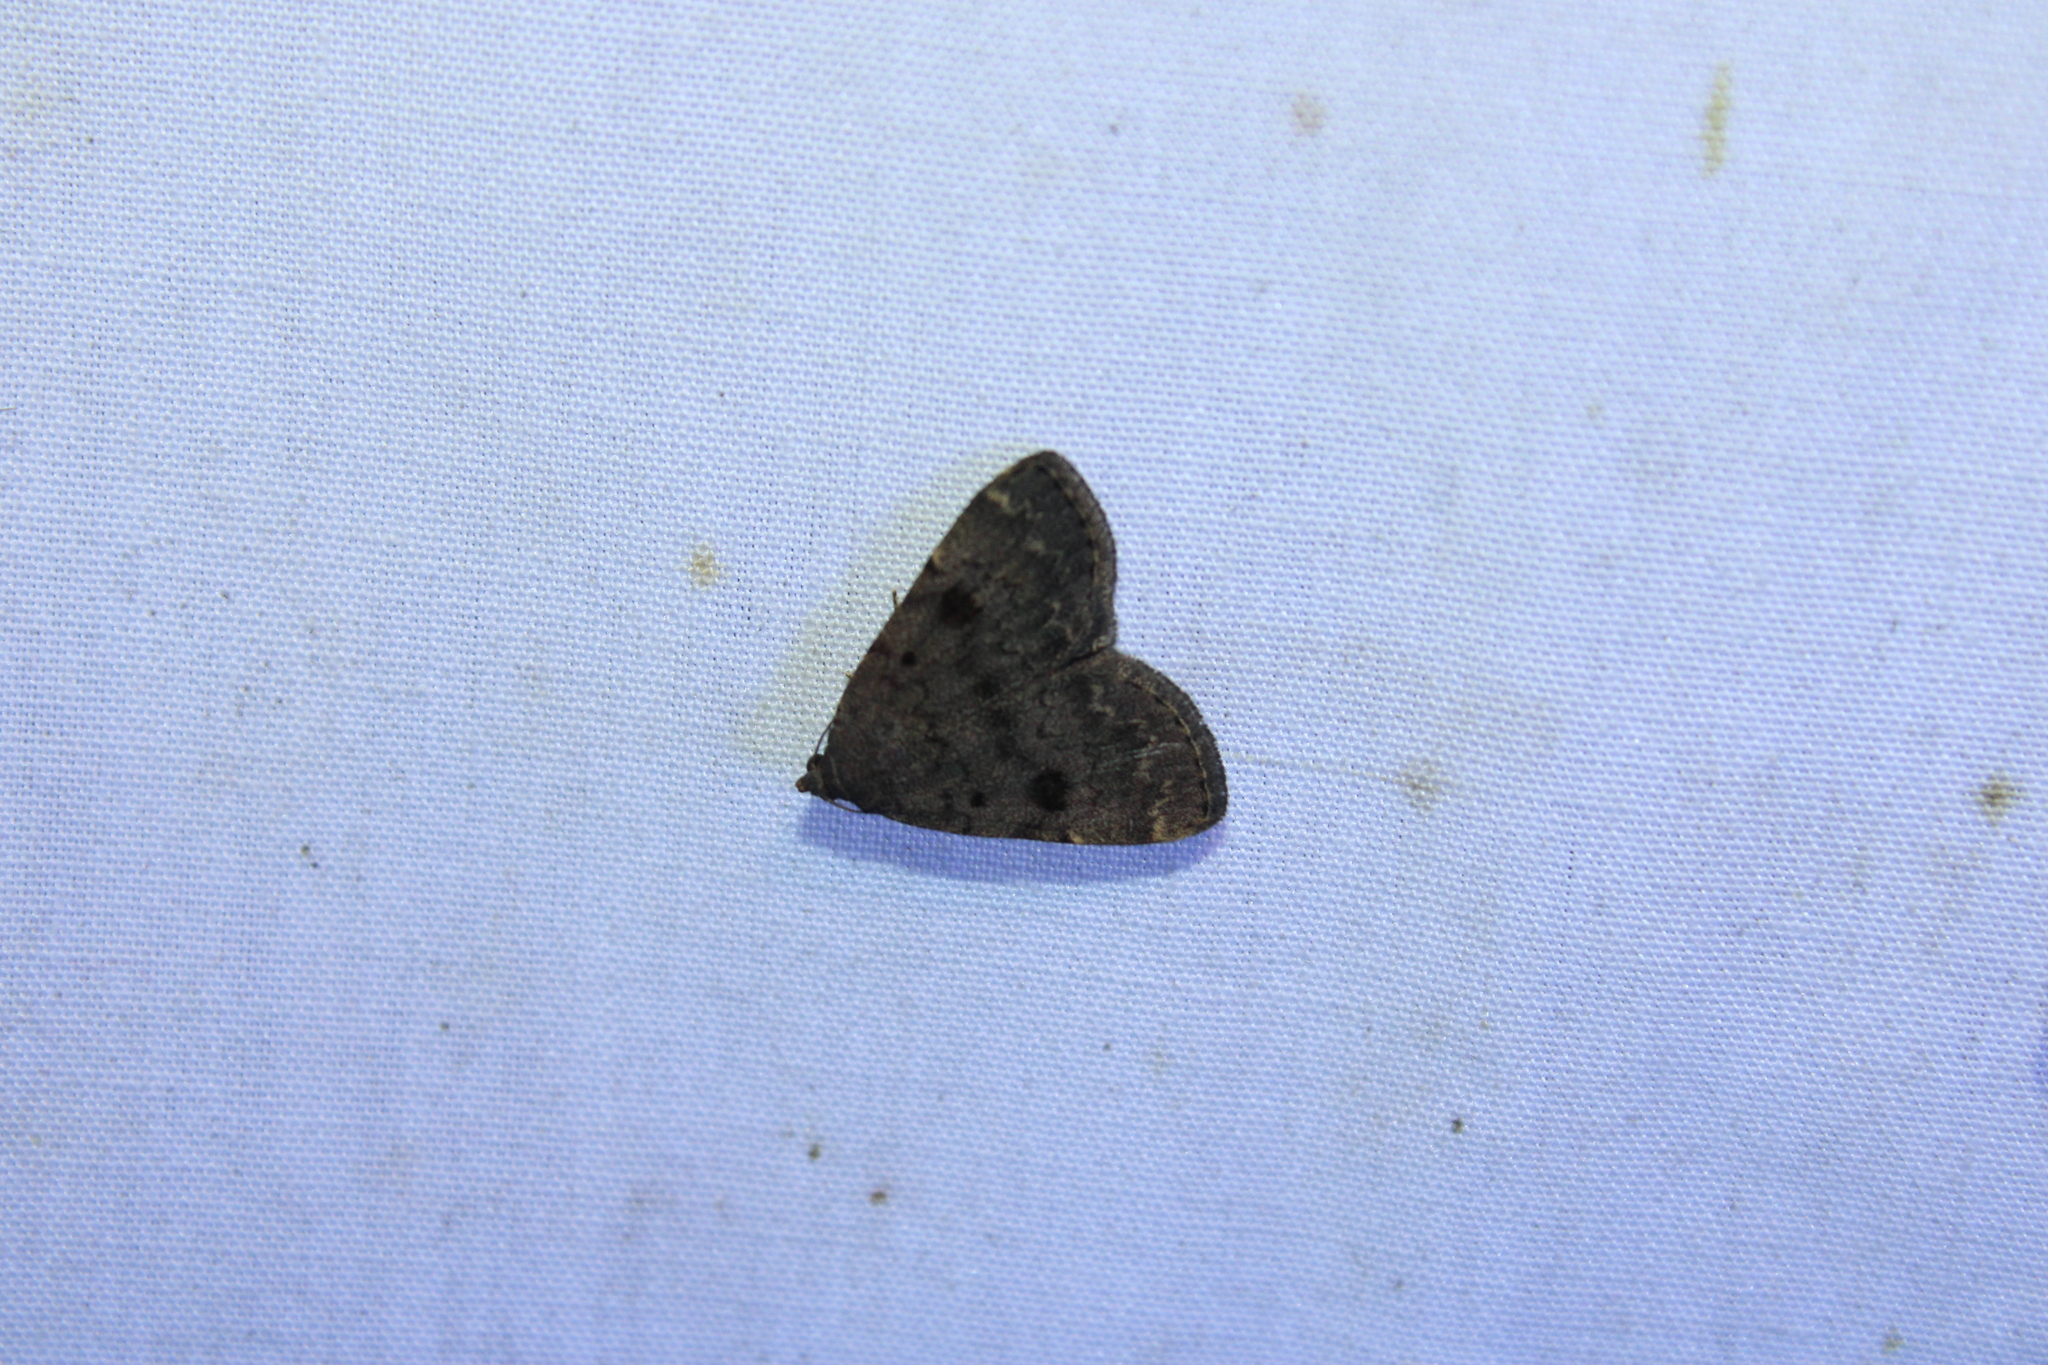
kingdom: Animalia
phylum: Arthropoda
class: Insecta
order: Lepidoptera
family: Erebidae
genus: Idia
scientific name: Idia aemula
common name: Common idia moth
